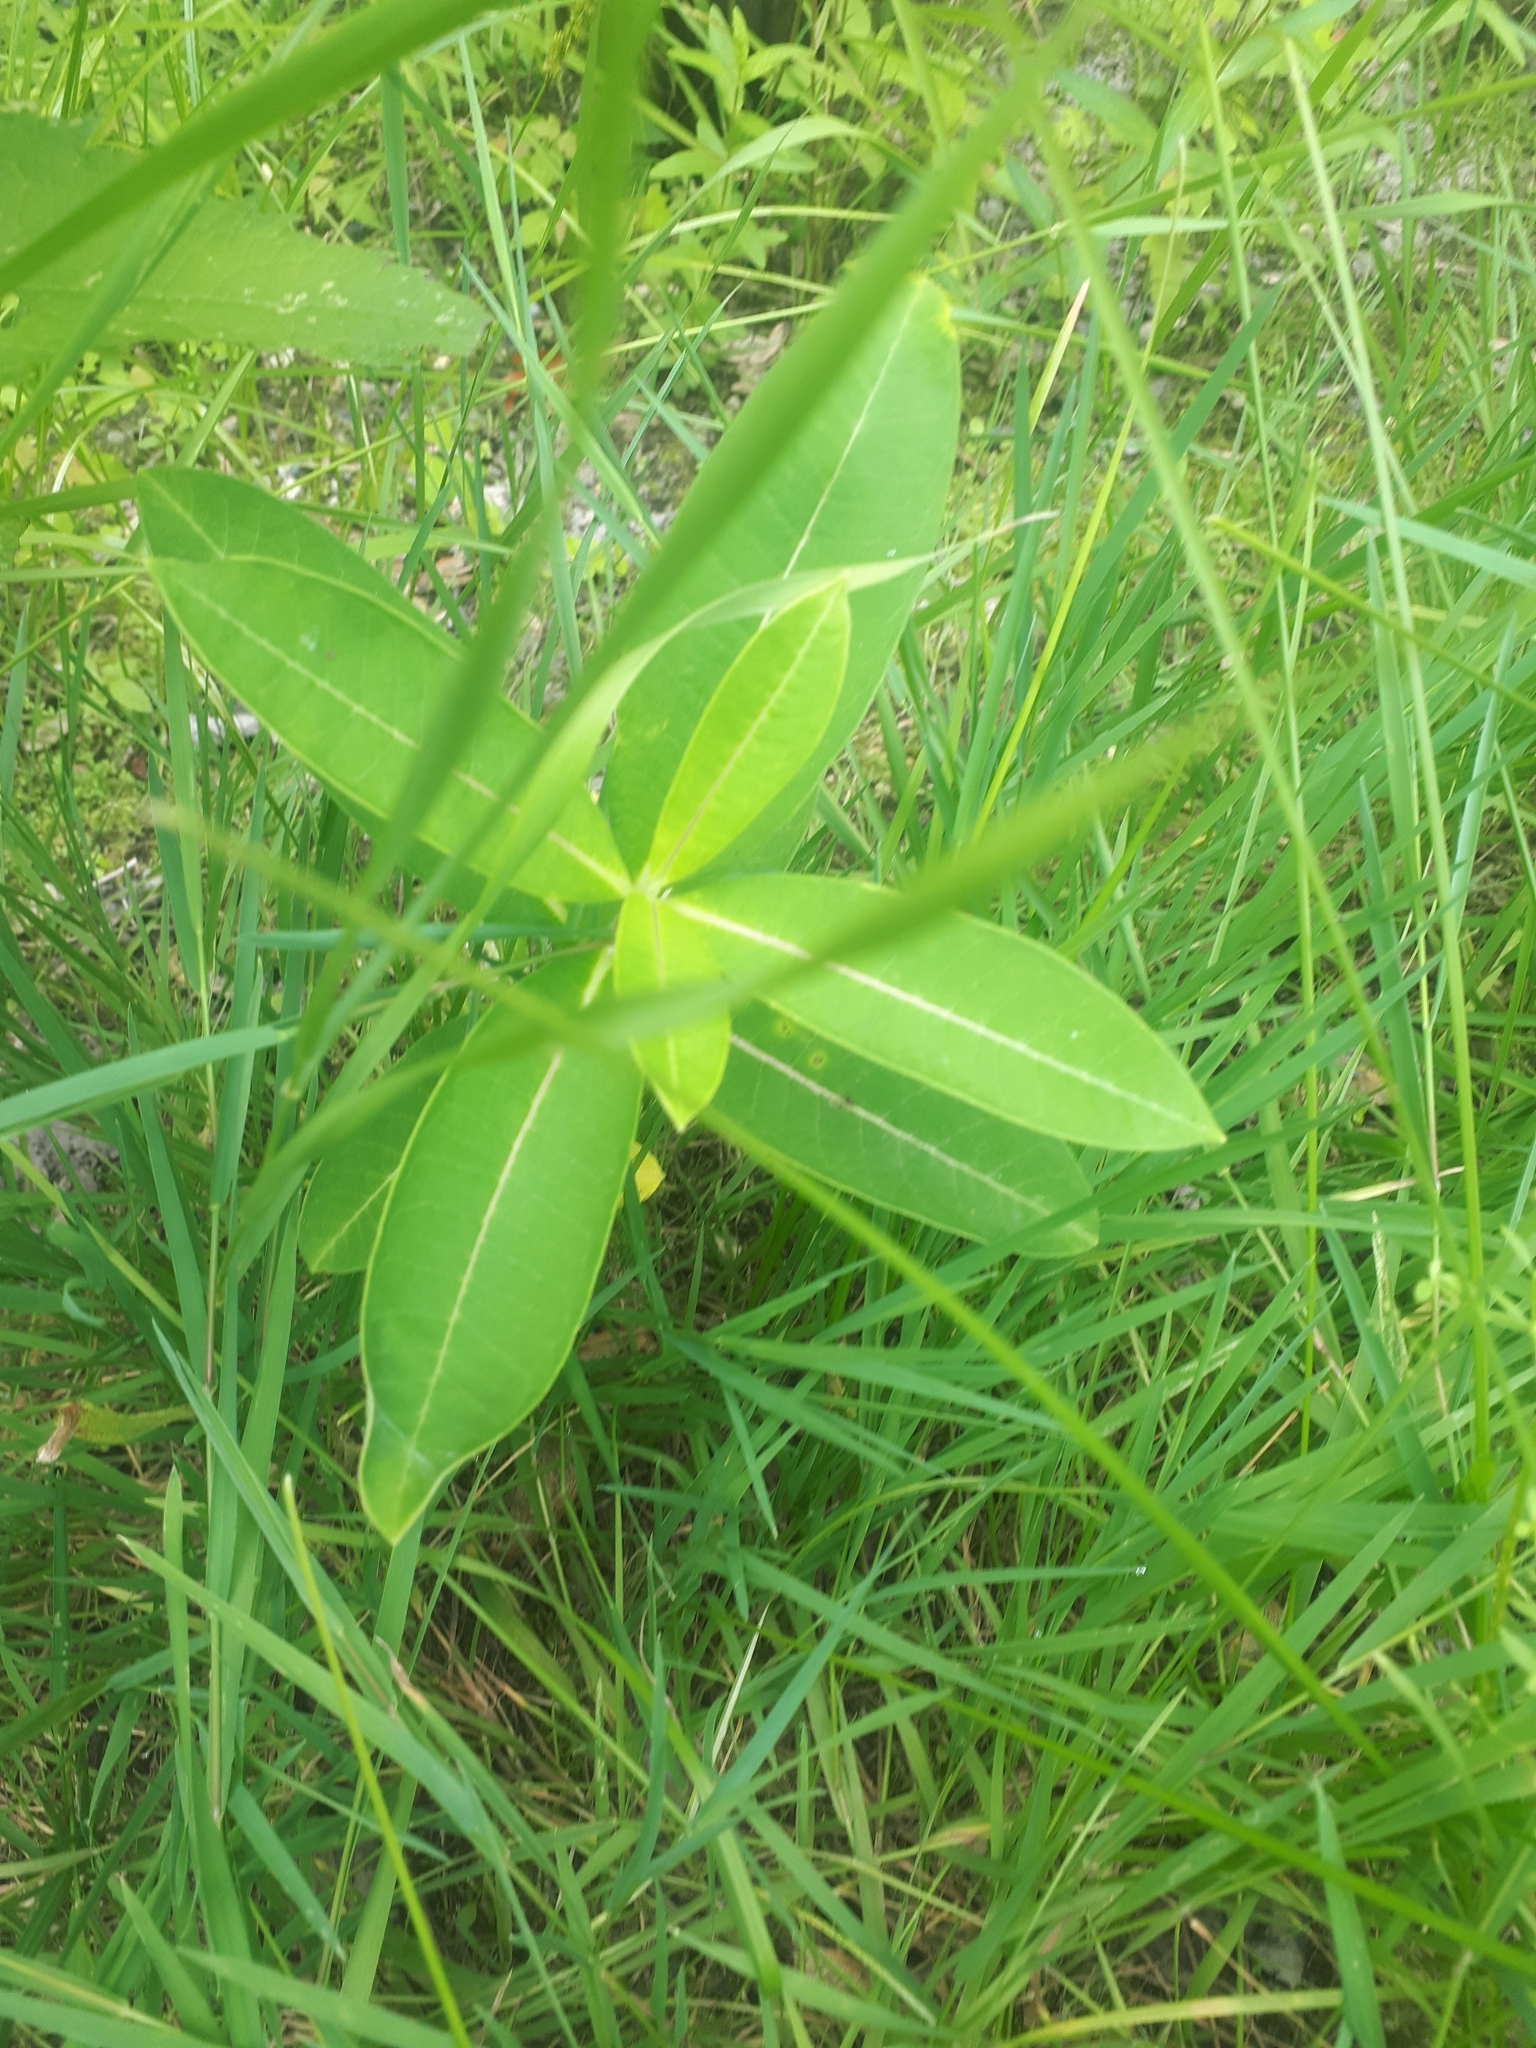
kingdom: Plantae
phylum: Tracheophyta
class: Magnoliopsida
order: Gentianales
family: Apocynaceae
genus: Asclepias
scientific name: Asclepias syriaca
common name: Common milkweed
